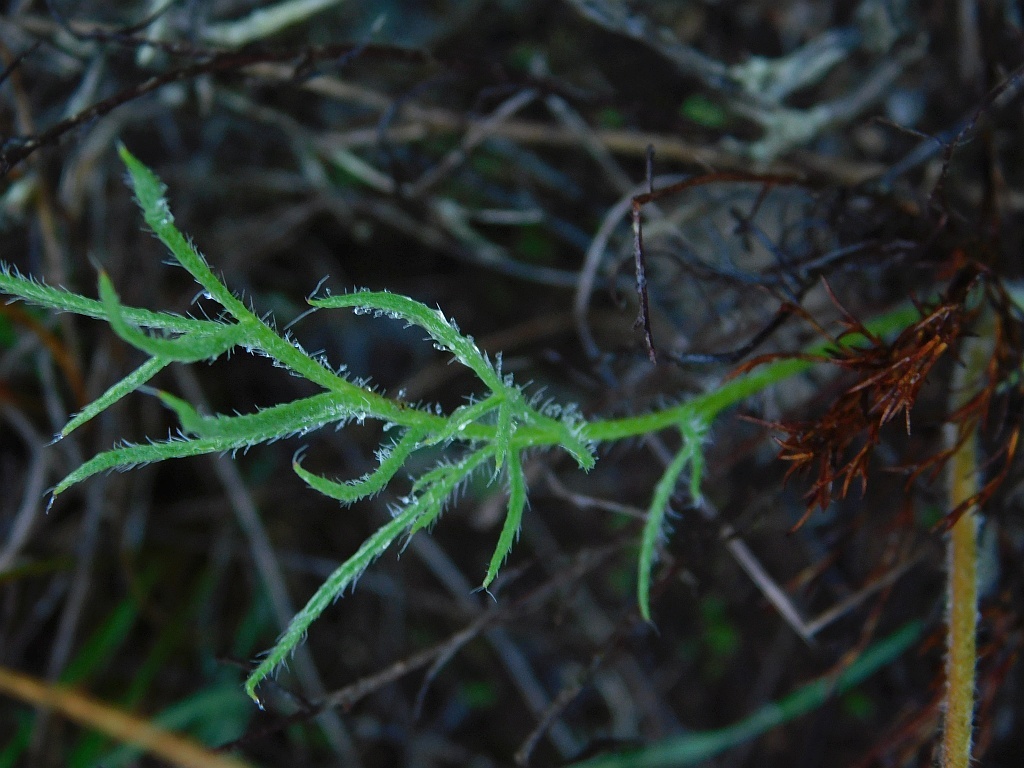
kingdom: Plantae
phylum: Tracheophyta
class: Magnoliopsida
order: Geraniales
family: Geraniaceae
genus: Pelargonium
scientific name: Pelargonium caledonicum
